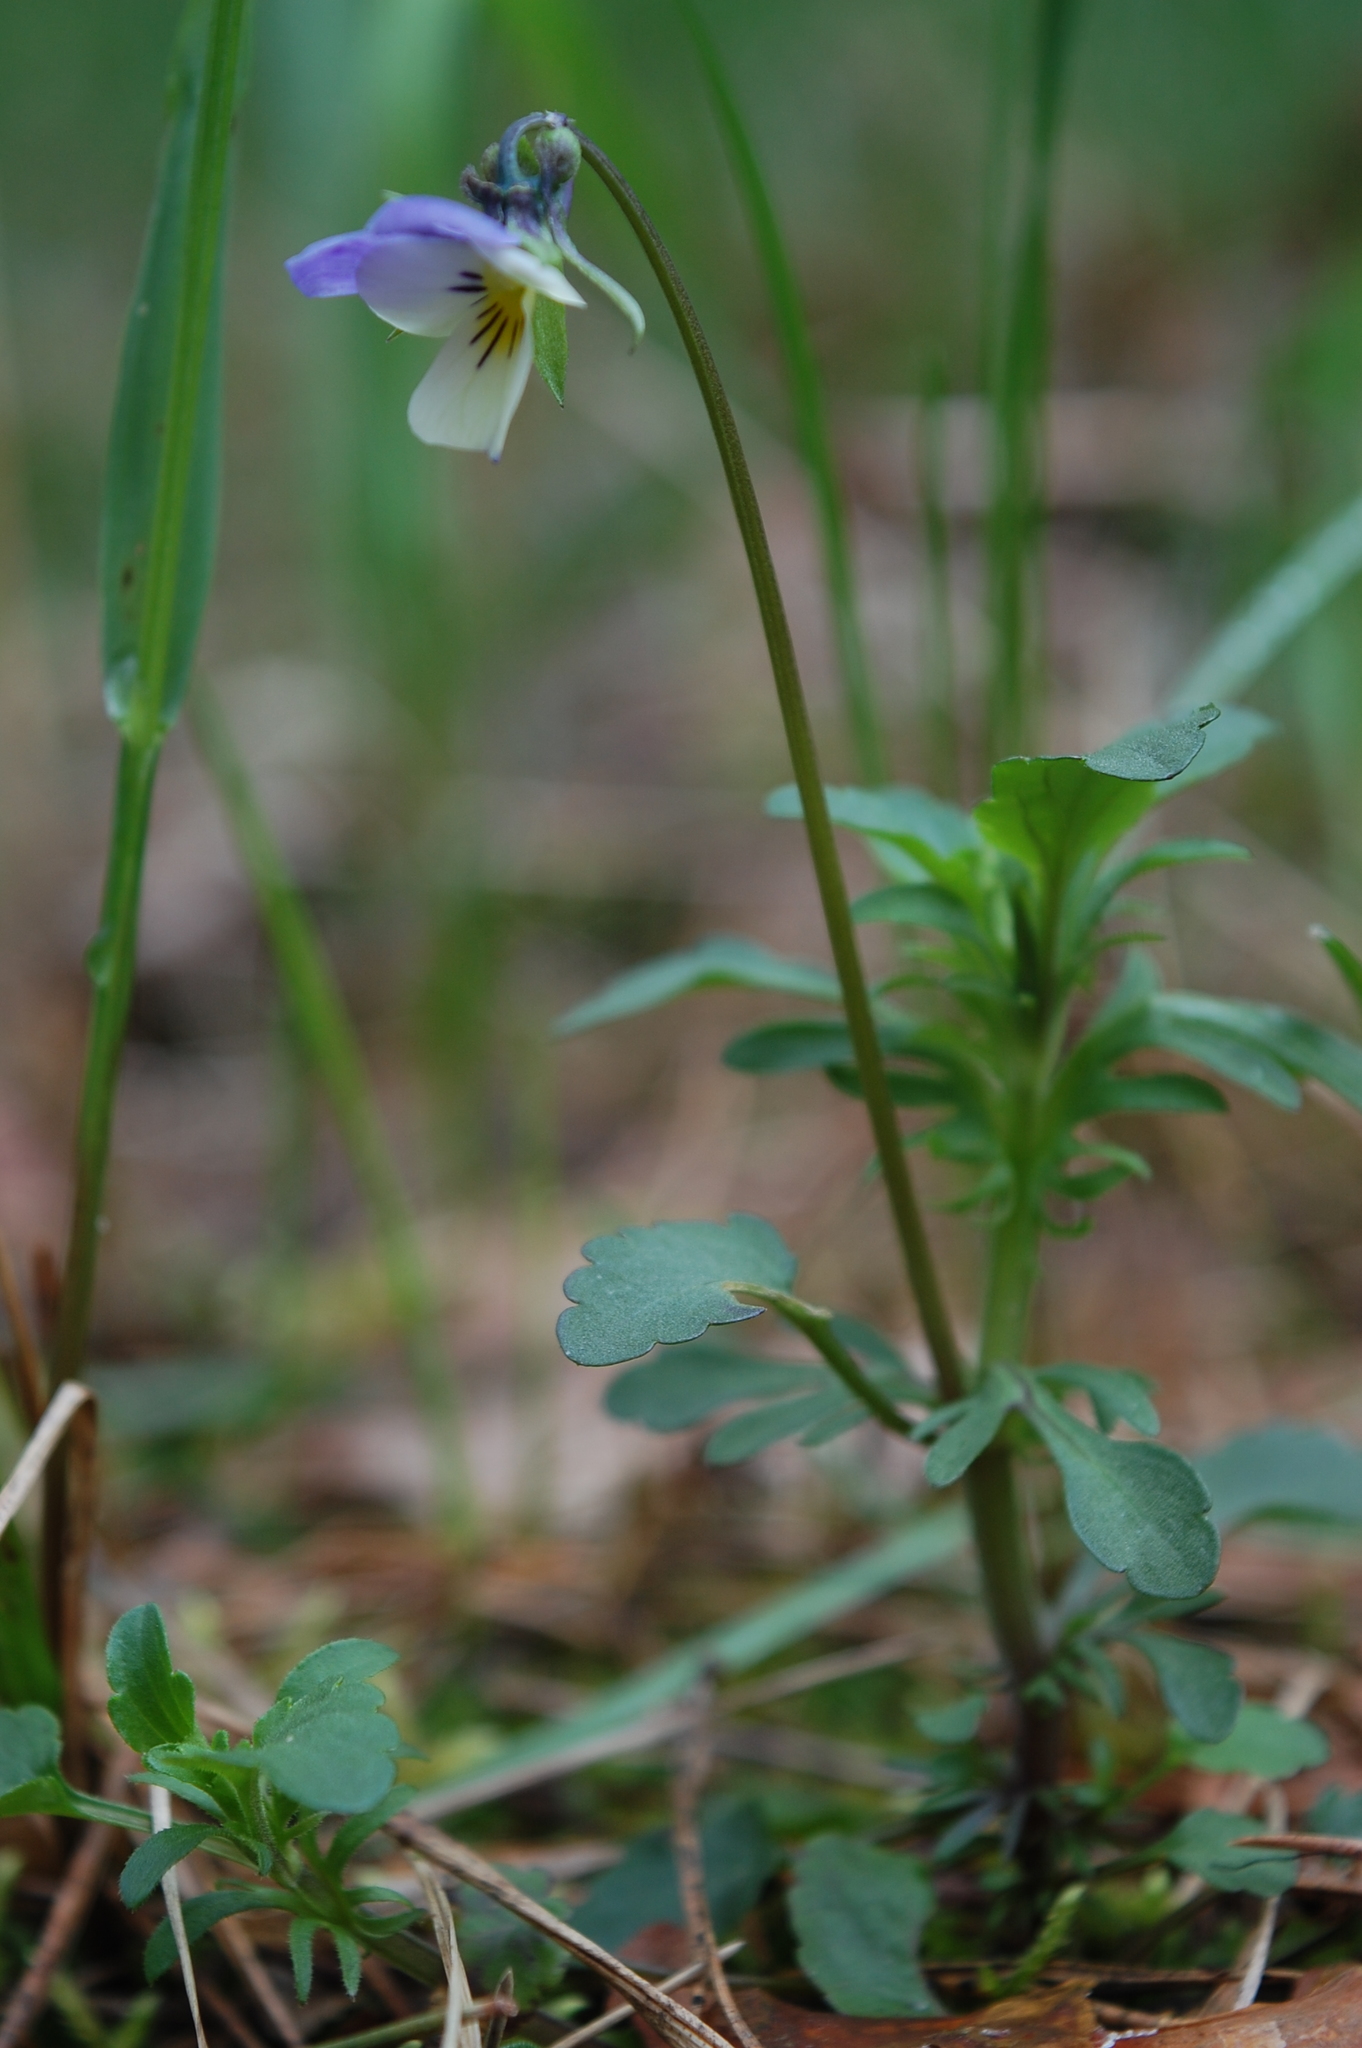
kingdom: Plantae
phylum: Tracheophyta
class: Magnoliopsida
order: Malpighiales
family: Violaceae
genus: Viola
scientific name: Viola tricolor
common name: Pansy
